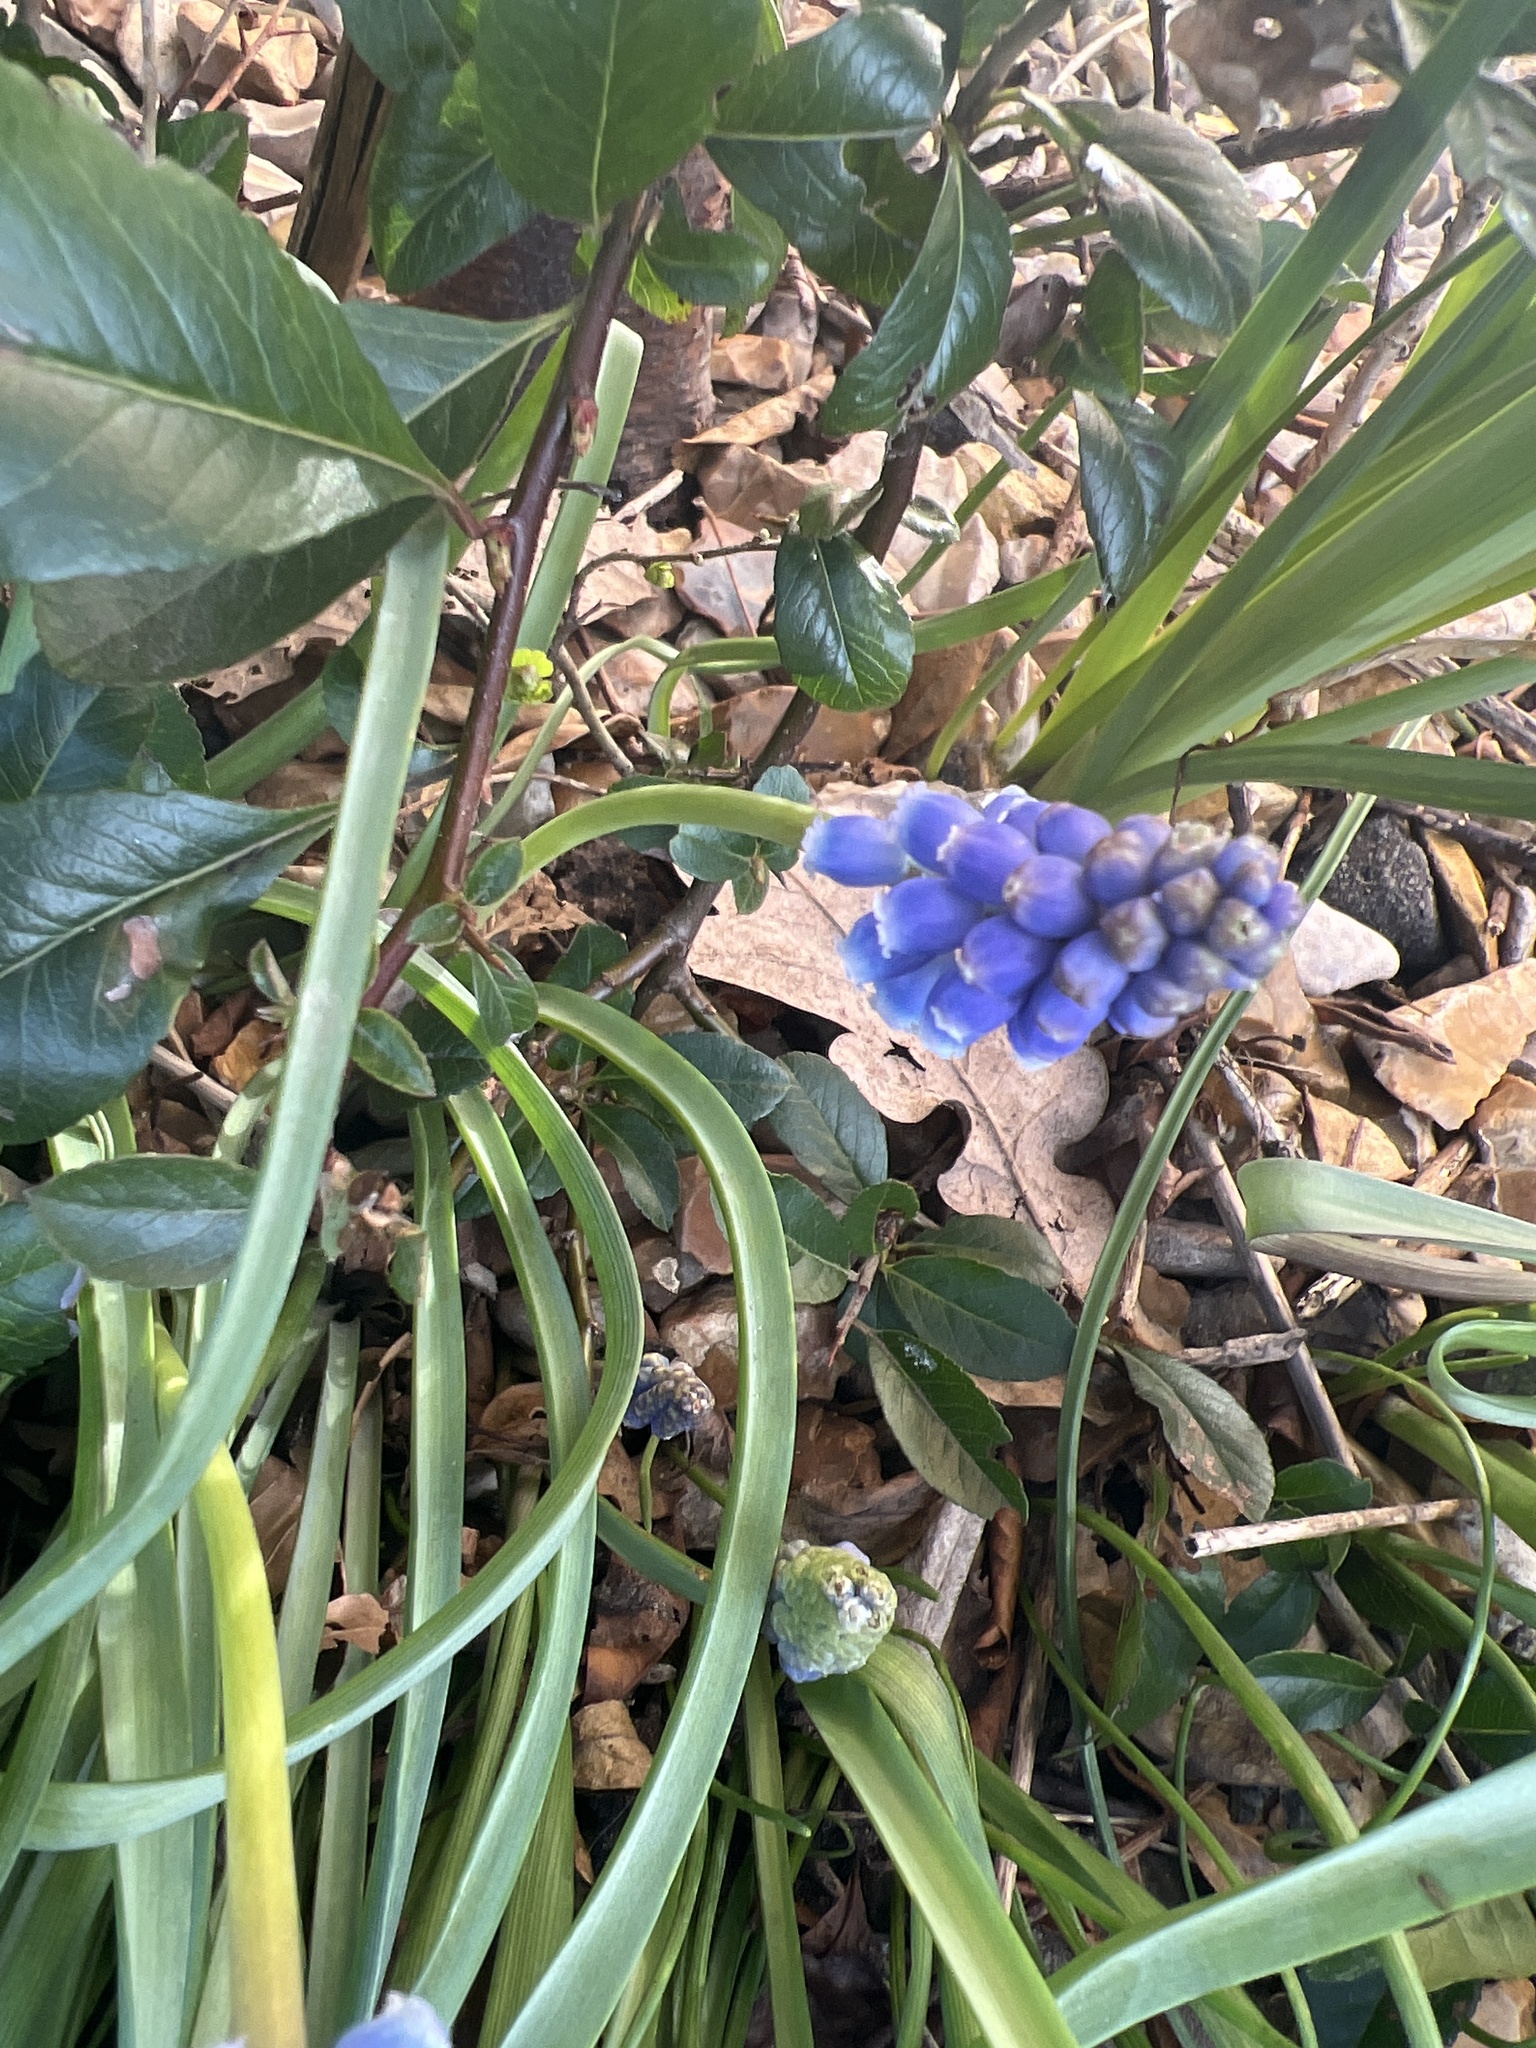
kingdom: Plantae
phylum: Tracheophyta
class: Liliopsida
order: Asparagales
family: Asparagaceae
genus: Muscari
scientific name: Muscari armeniacum
